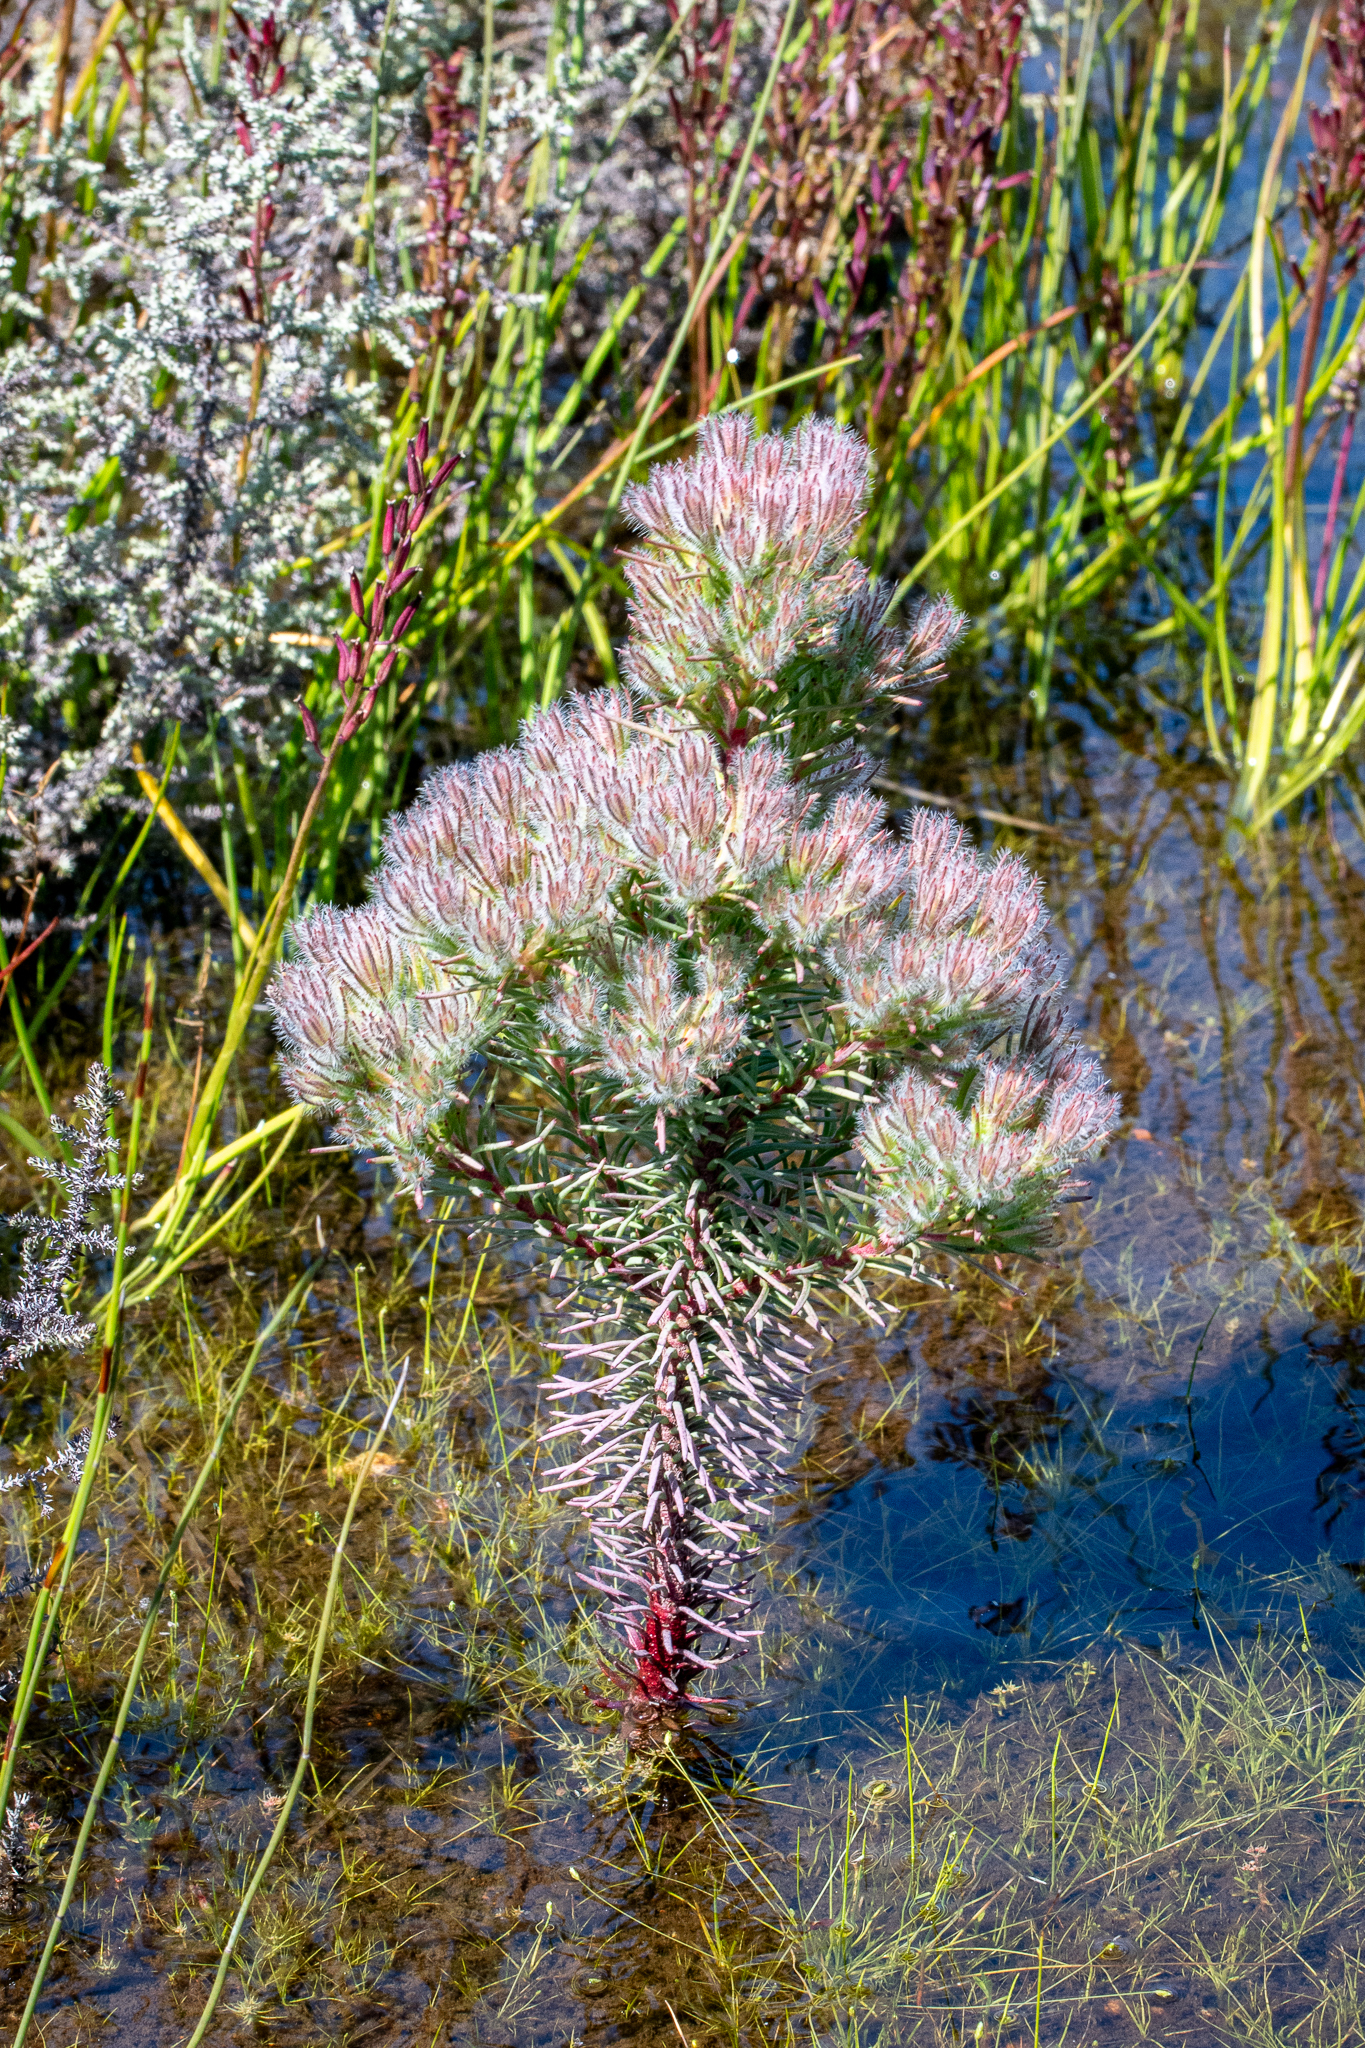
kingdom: Plantae
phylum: Tracheophyta
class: Magnoliopsida
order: Proteales
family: Proteaceae
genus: Leucadendron
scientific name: Leucadendron corymbosum
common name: Swartveld conebush
